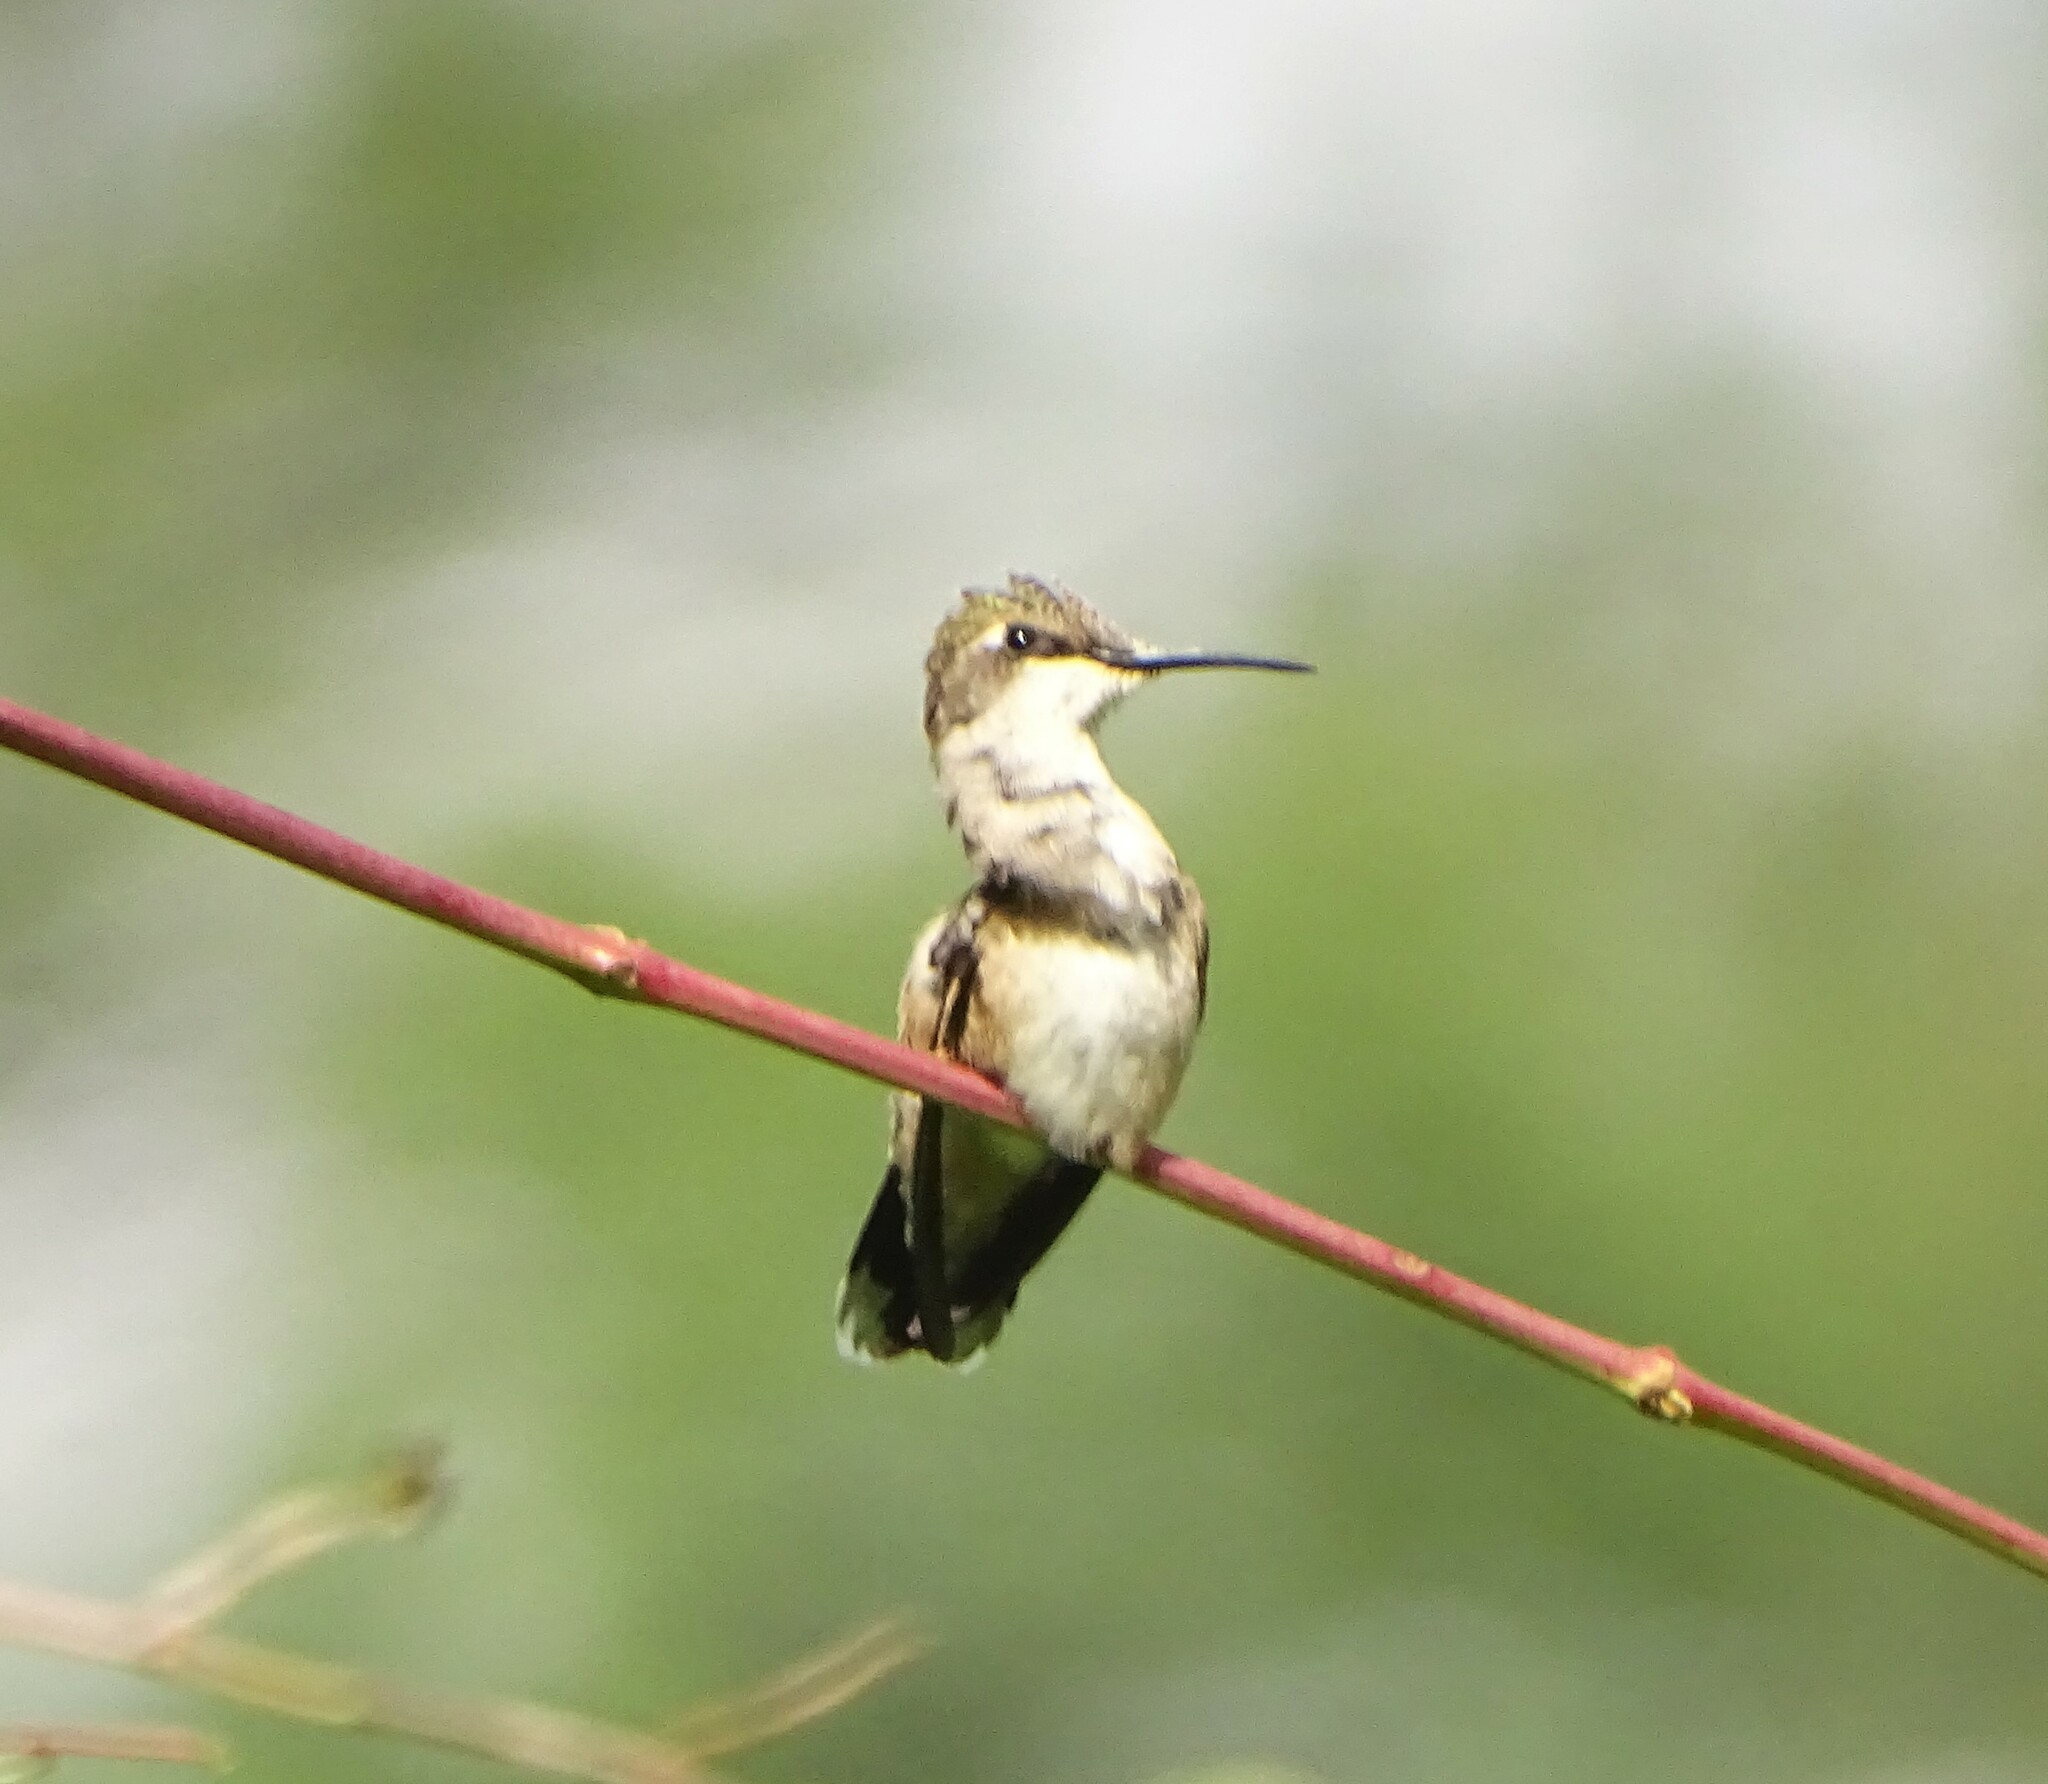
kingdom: Animalia
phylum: Chordata
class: Aves
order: Apodiformes
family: Trochilidae
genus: Archilochus
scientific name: Archilochus colubris
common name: Ruby-throated hummingbird
